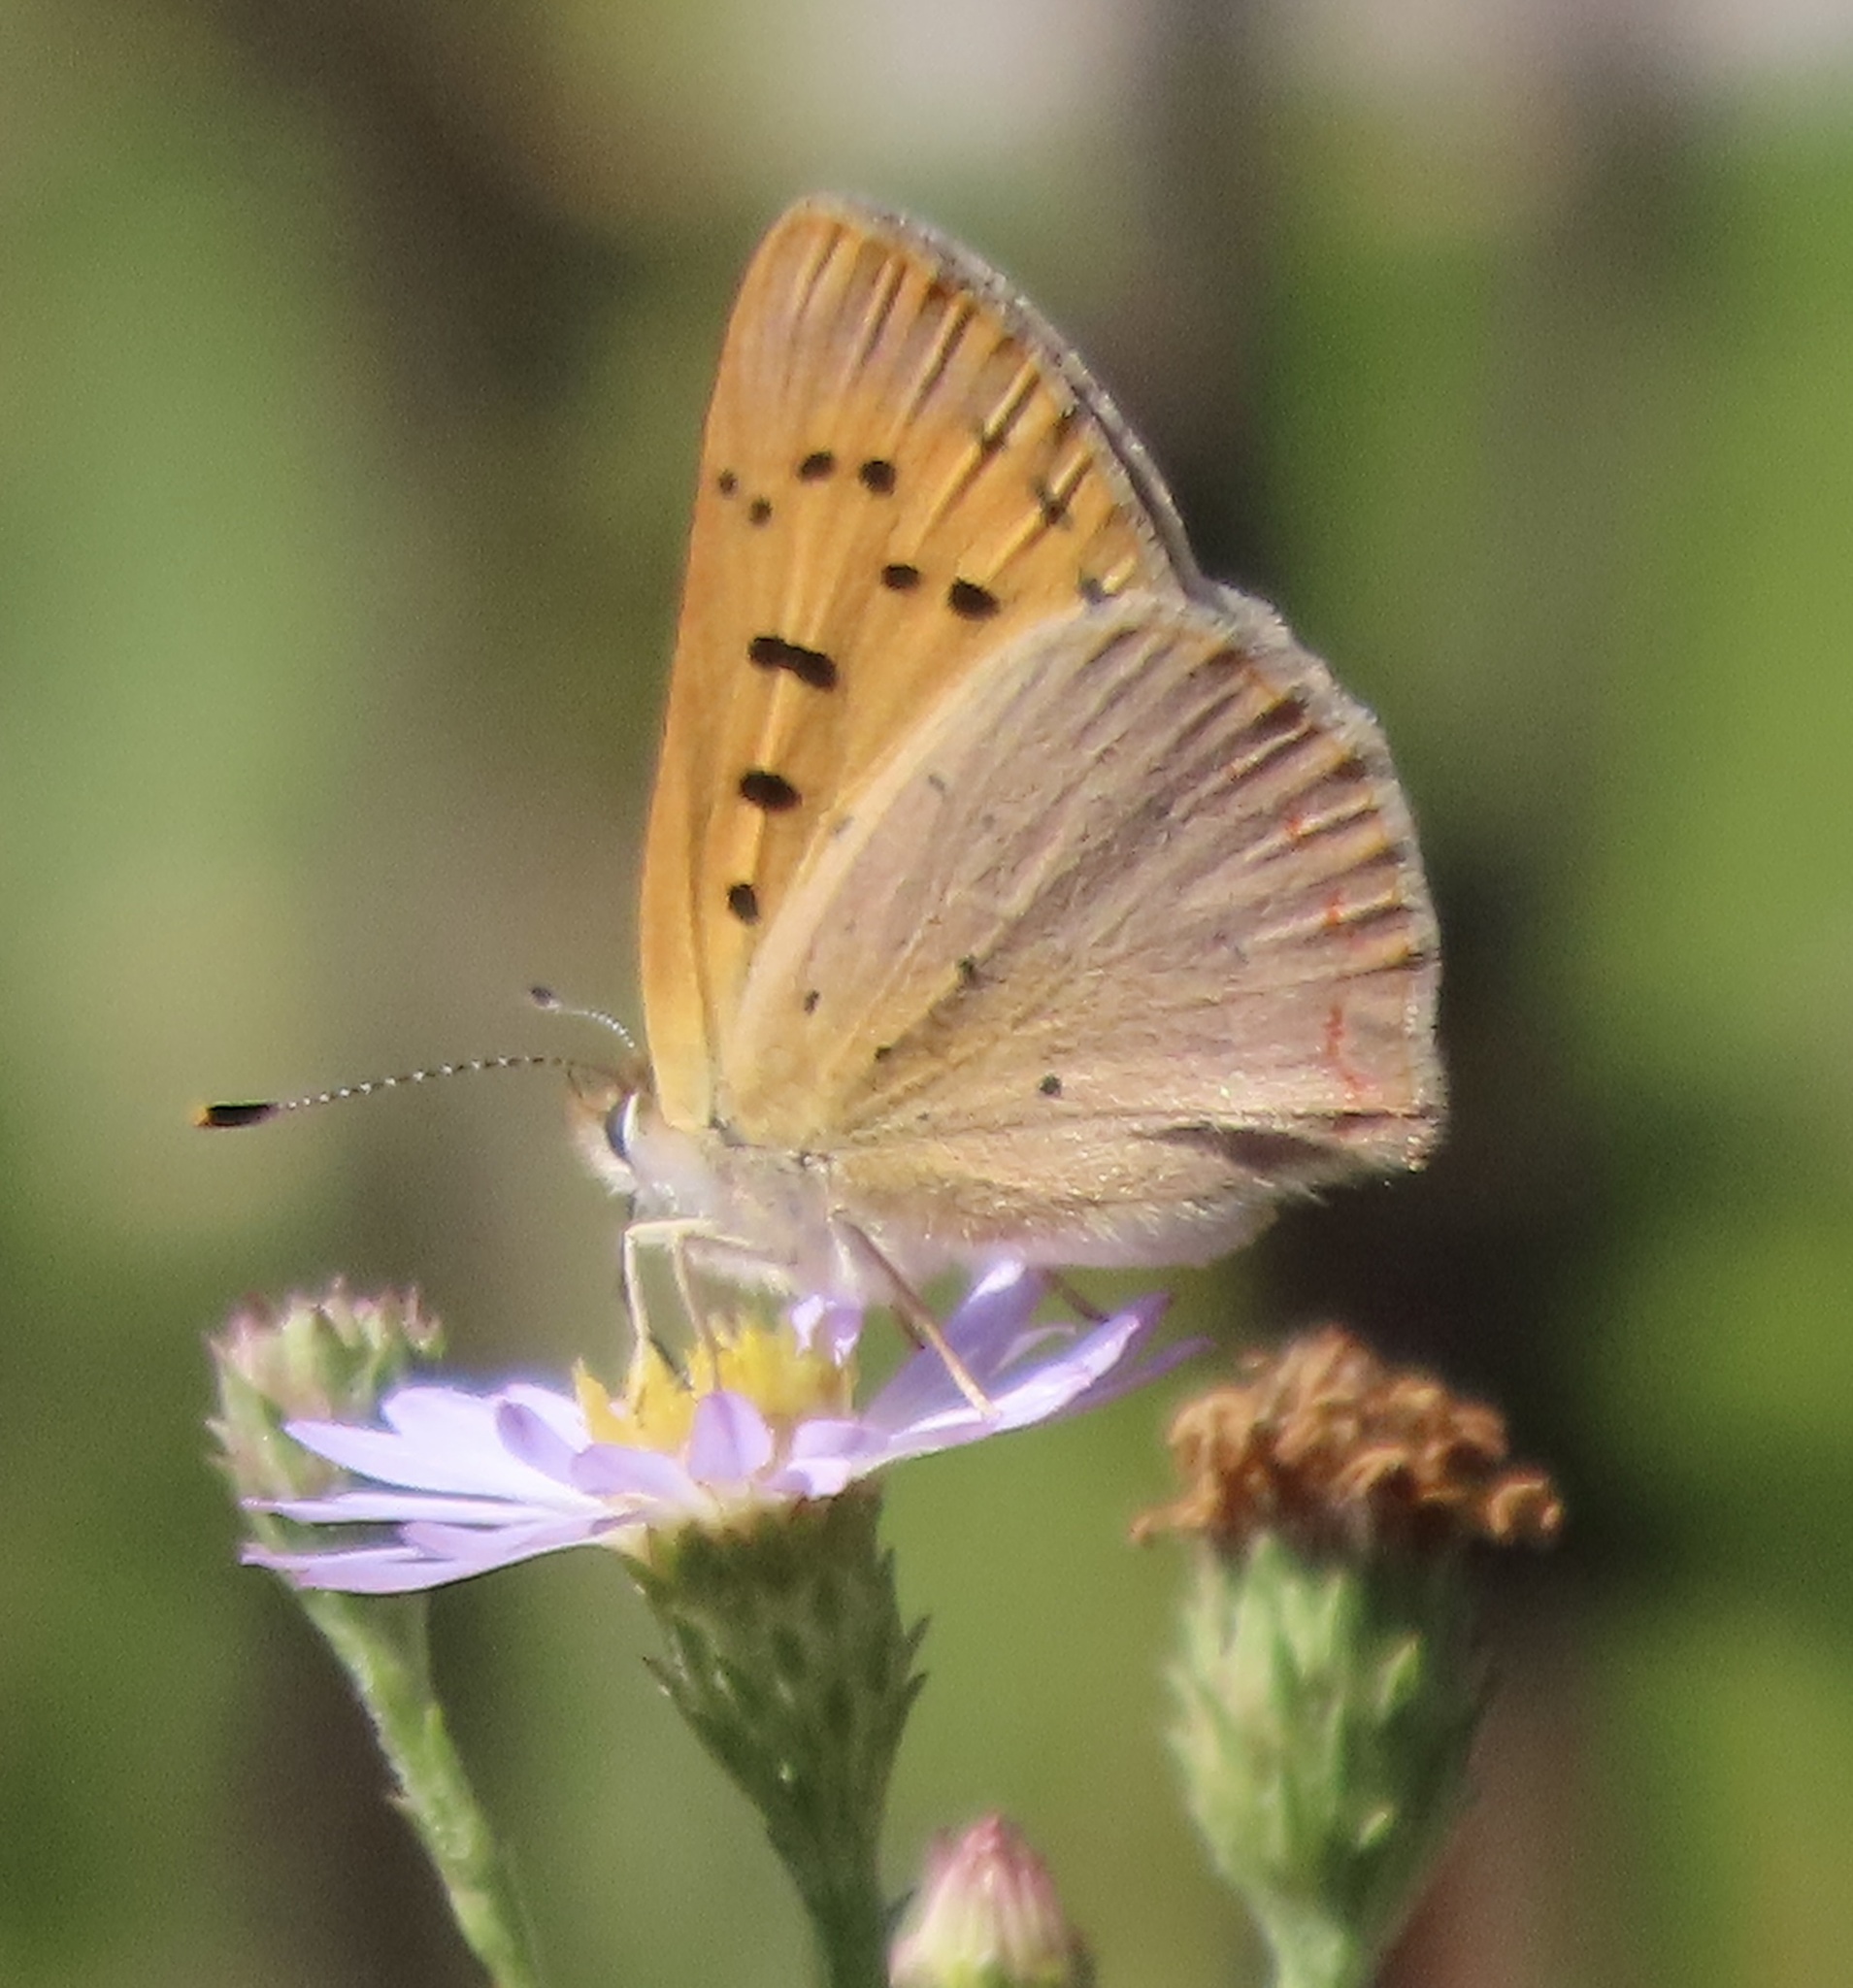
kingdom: Animalia
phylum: Arthropoda
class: Insecta
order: Lepidoptera
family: Lycaenidae
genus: Tharsalea
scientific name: Tharsalea helloides
